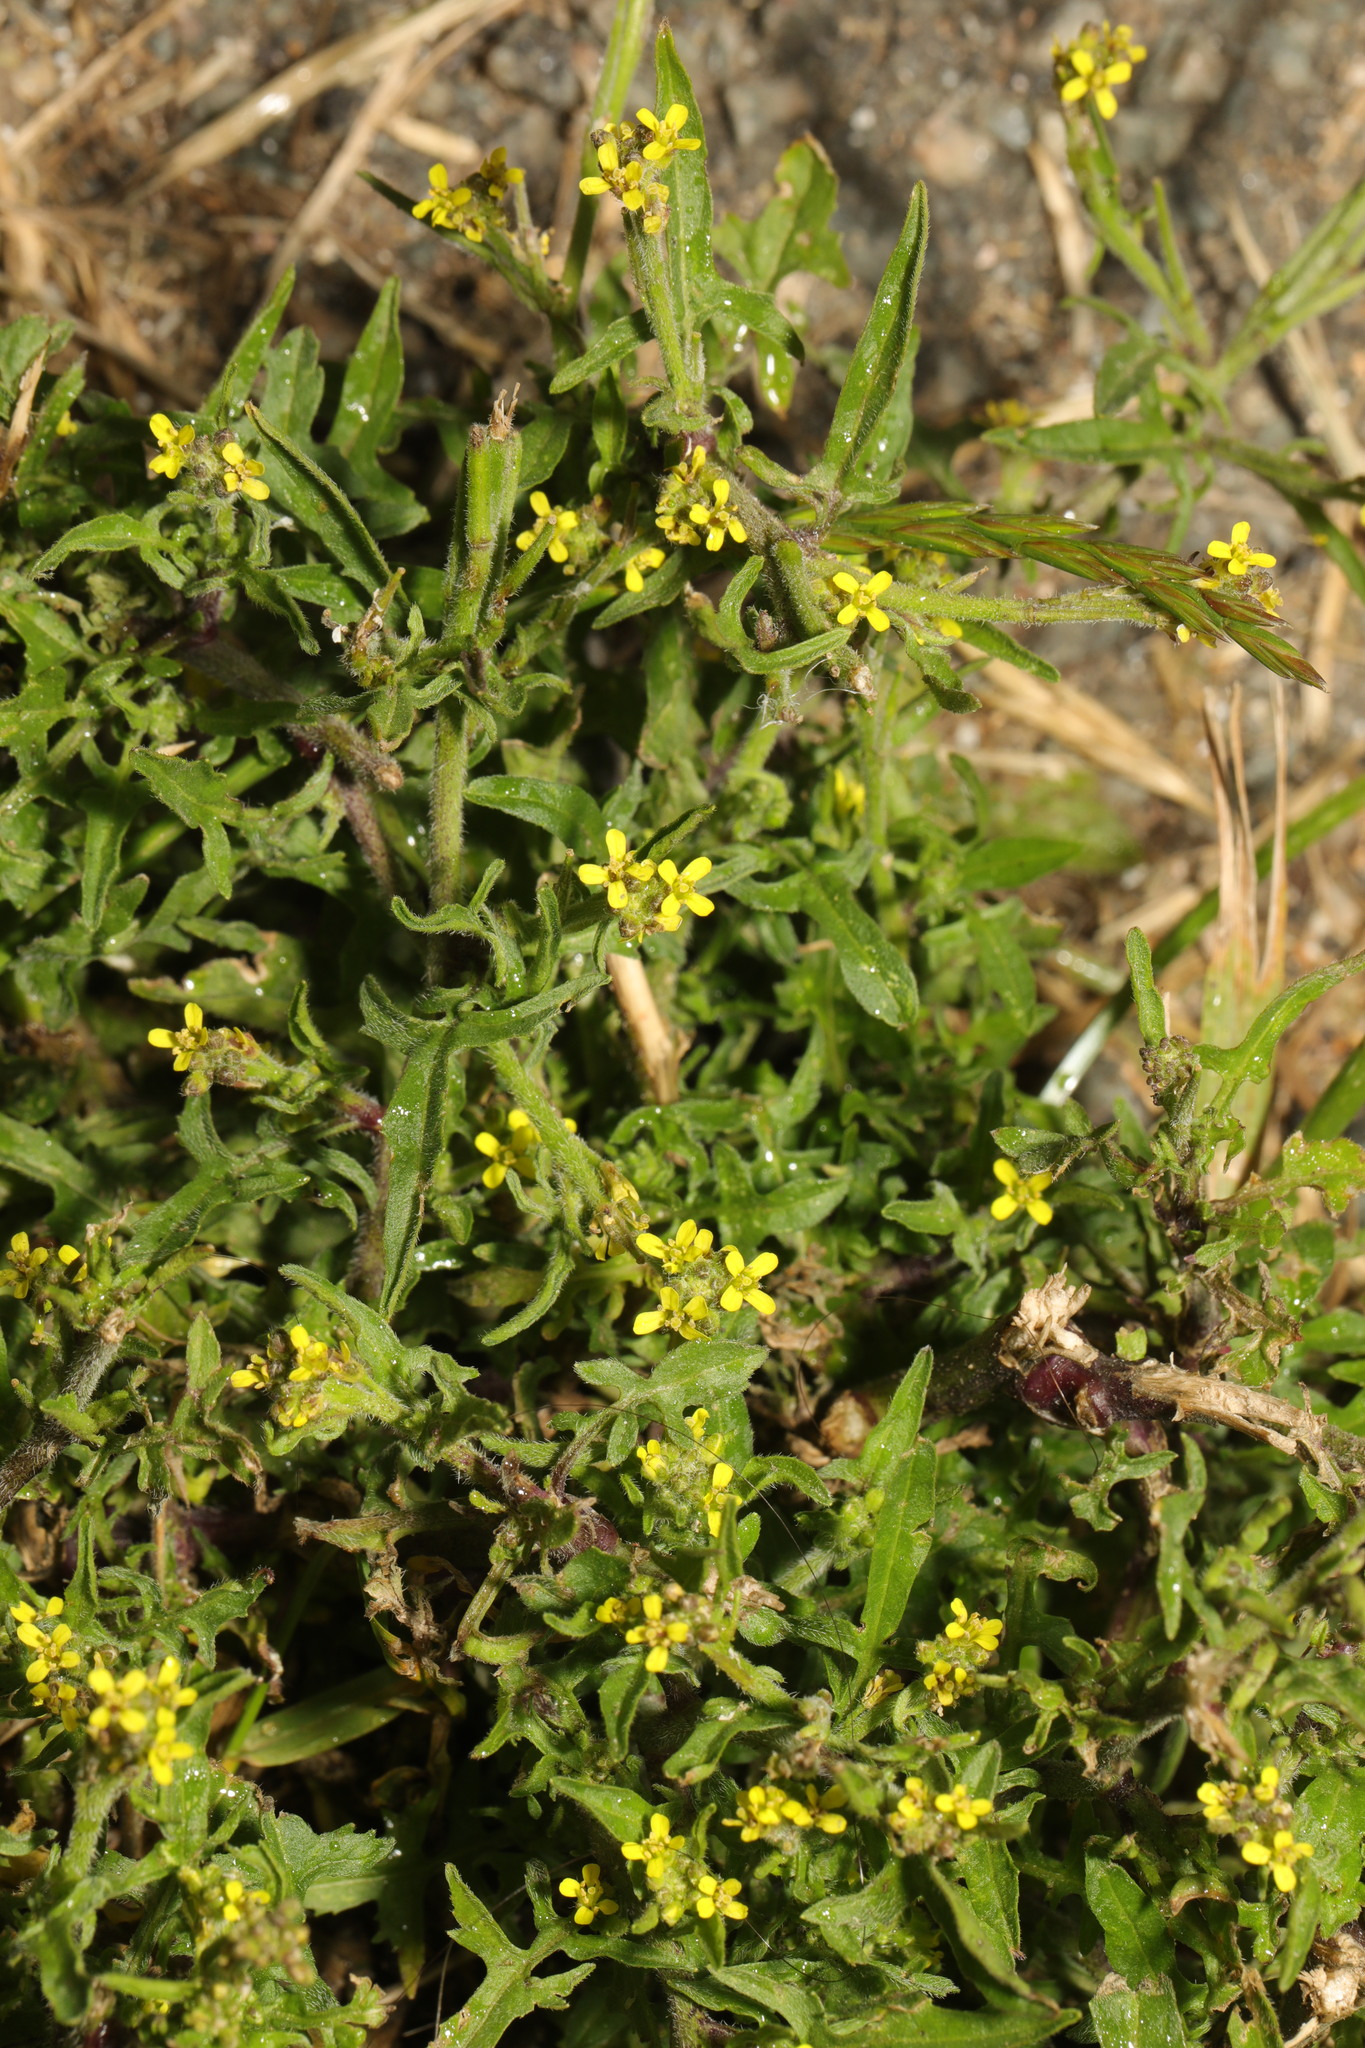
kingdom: Plantae
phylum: Tracheophyta
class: Magnoliopsida
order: Brassicales
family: Brassicaceae
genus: Sisymbrium
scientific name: Sisymbrium officinale
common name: Hedge mustard
